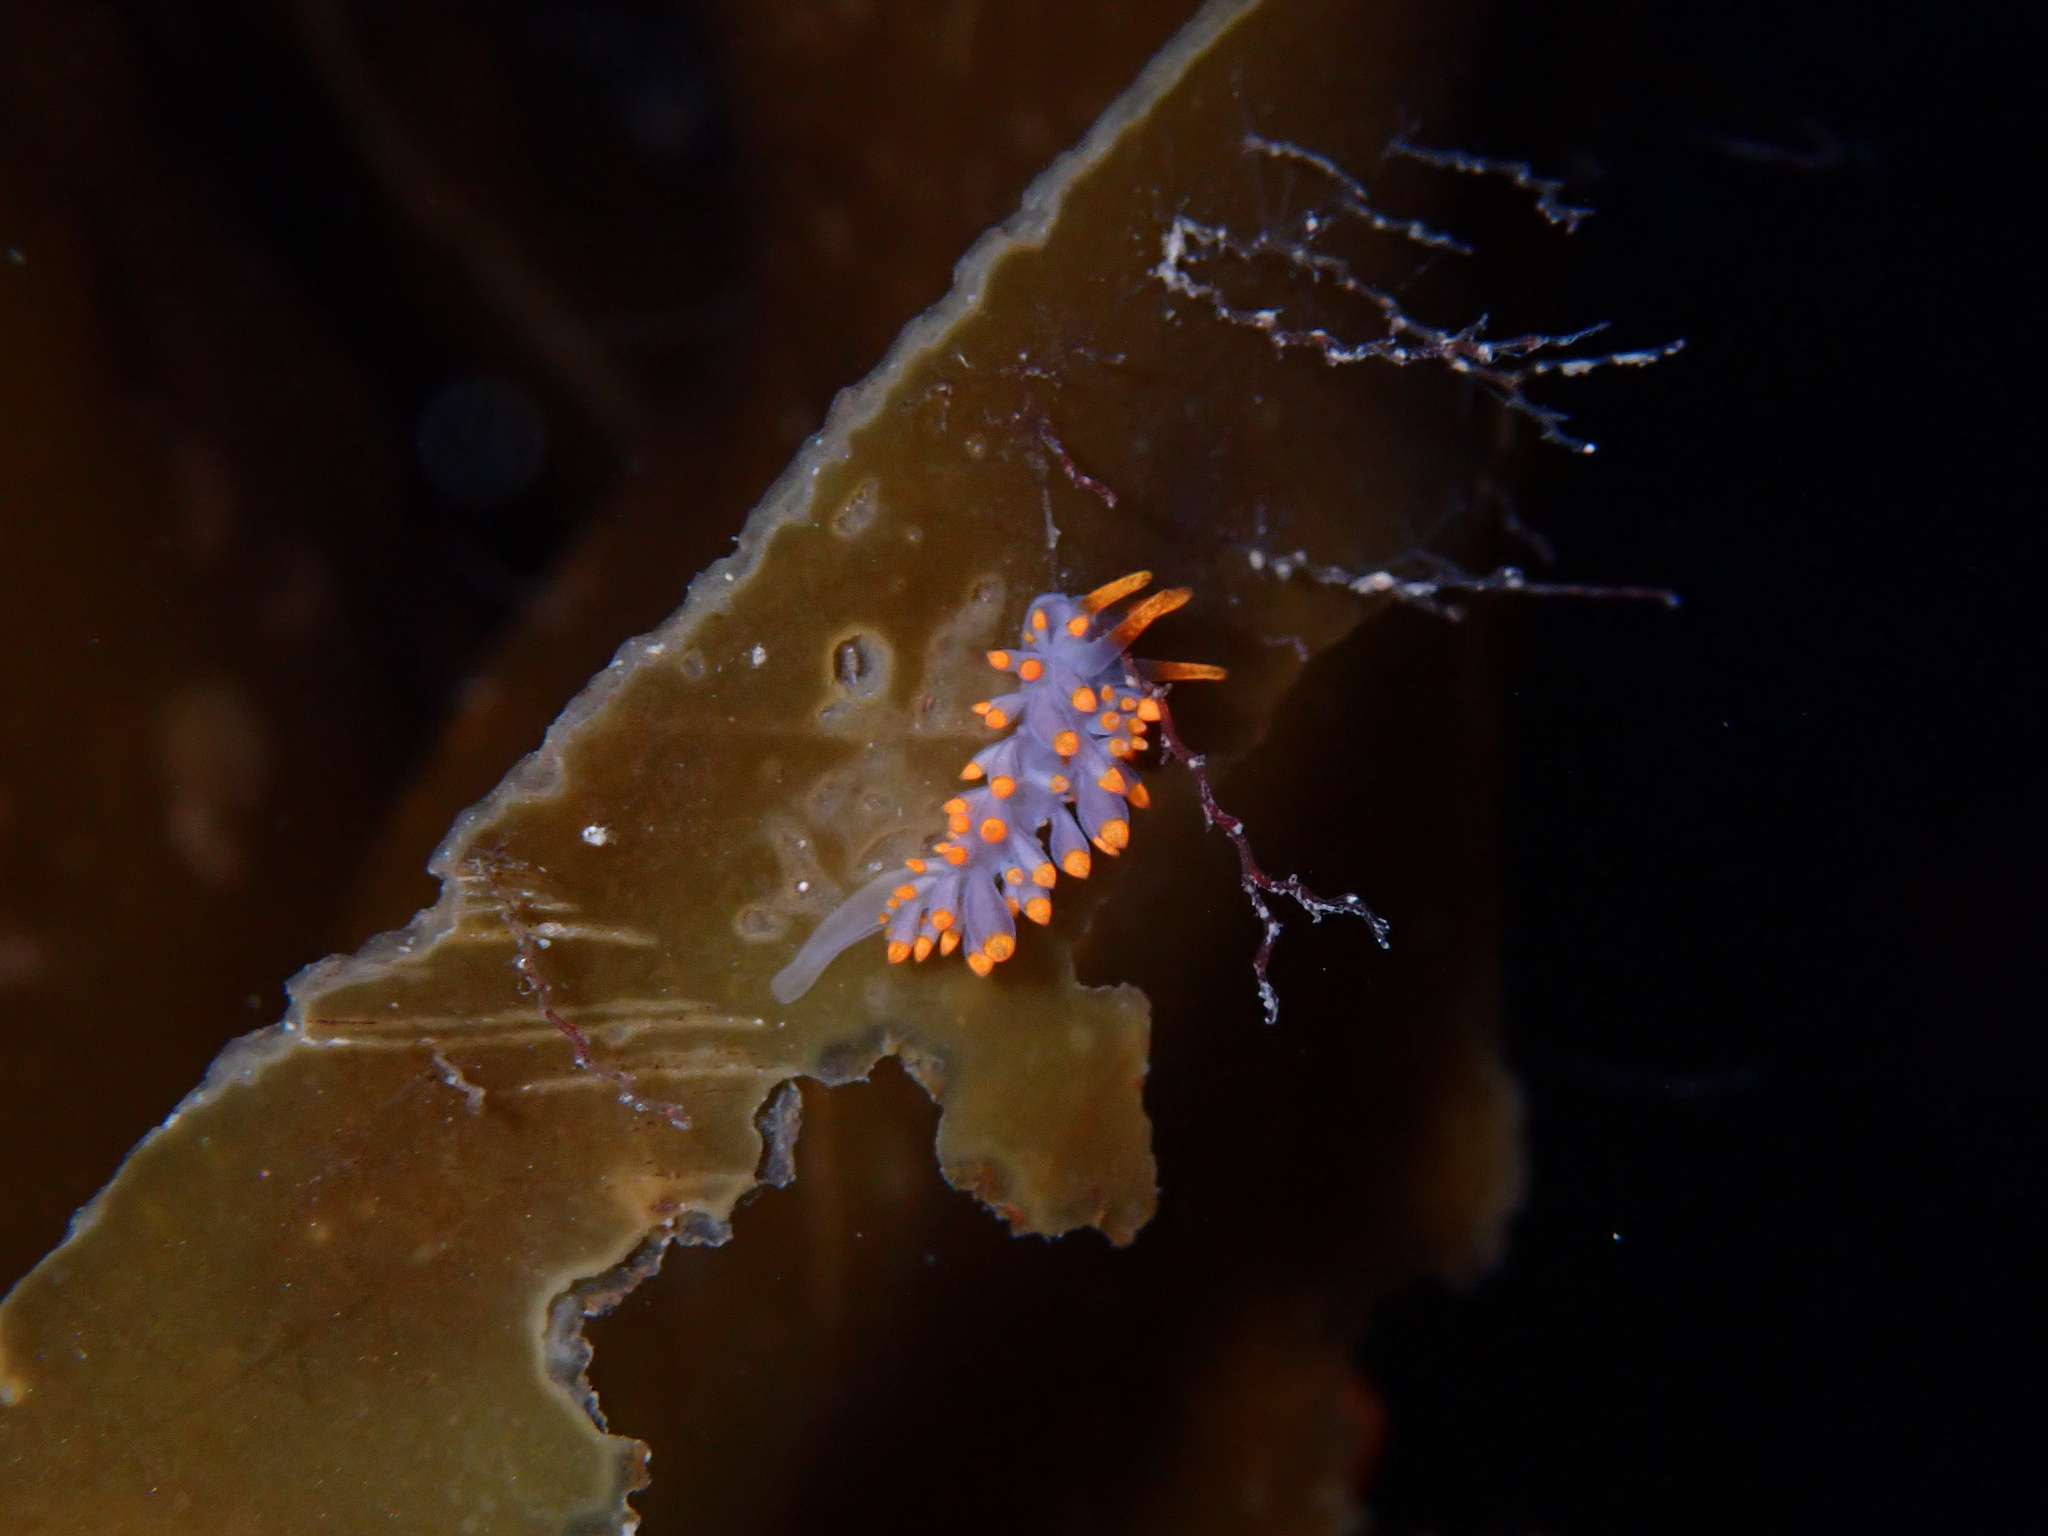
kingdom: Animalia
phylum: Mollusca
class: Gastropoda
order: Nudibranchia
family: Eubranchidae
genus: Amphorina
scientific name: Amphorina farrani
